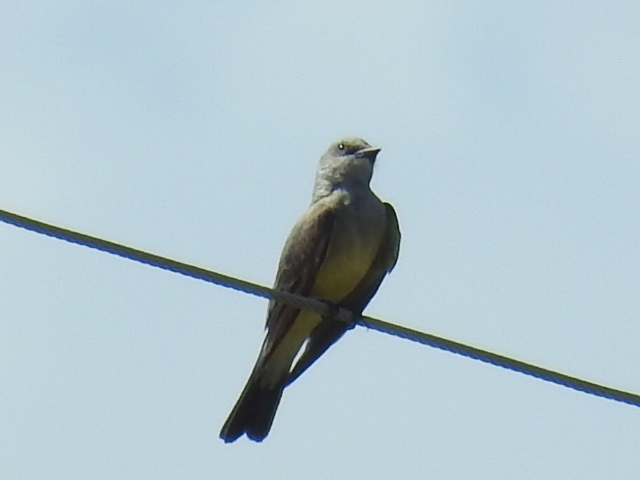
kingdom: Animalia
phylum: Chordata
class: Aves
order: Passeriformes
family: Tyrannidae
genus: Tyrannus
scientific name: Tyrannus verticalis
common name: Western kingbird
